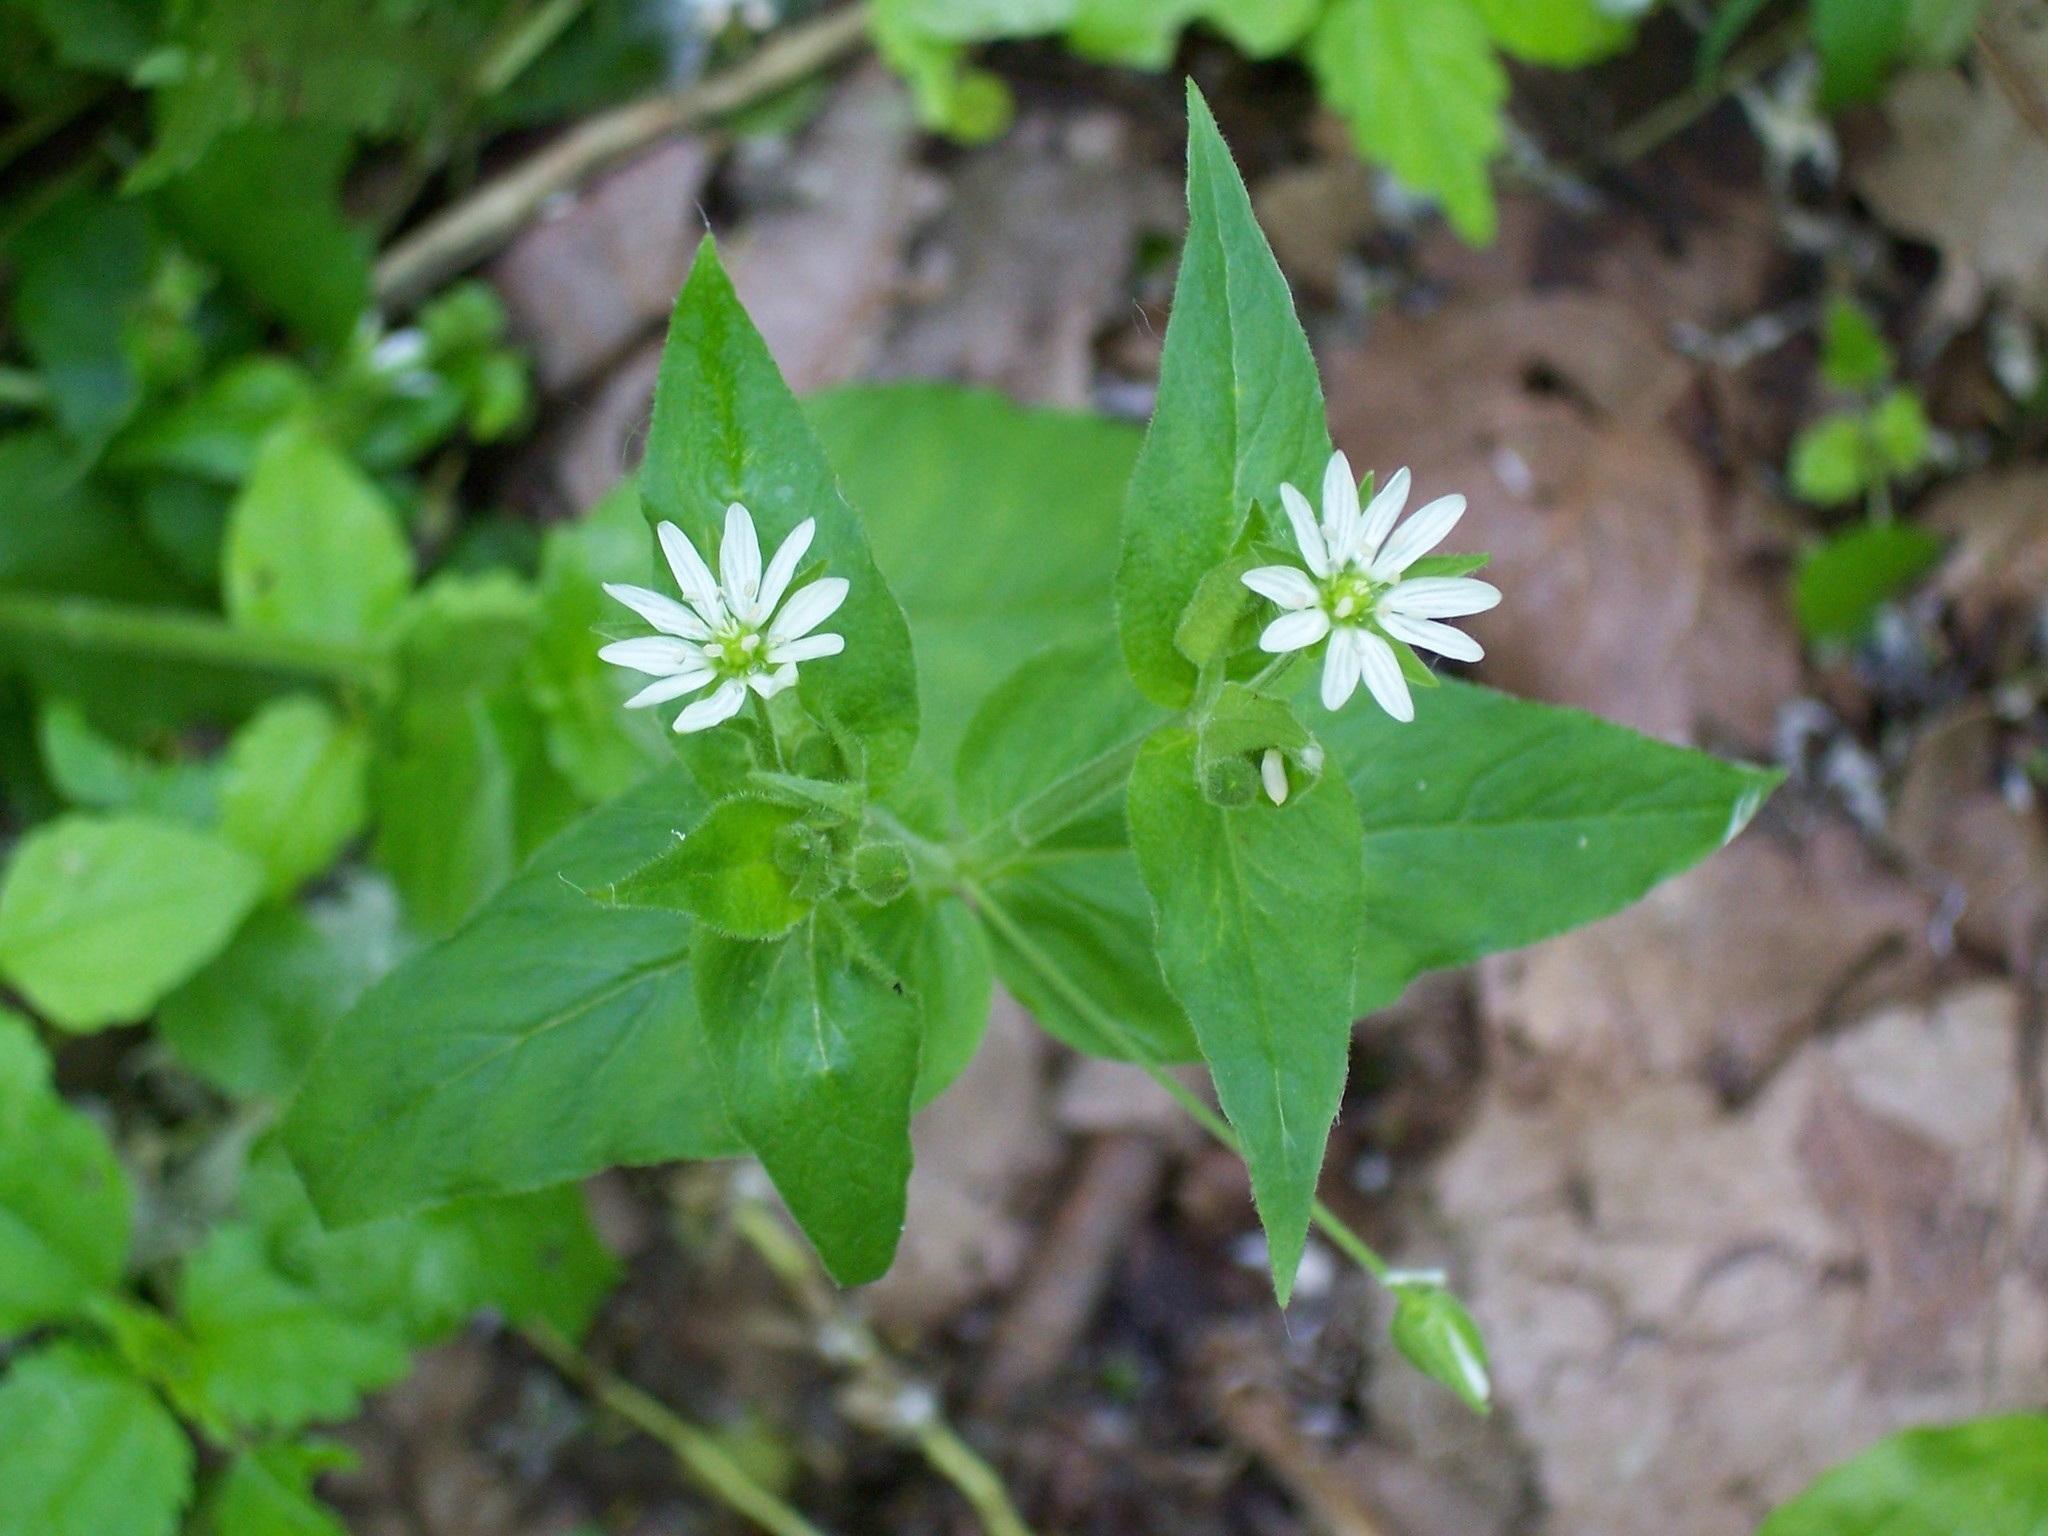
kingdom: Plantae
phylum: Tracheophyta
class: Magnoliopsida
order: Caryophyllales
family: Caryophyllaceae
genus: Stellaria
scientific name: Stellaria aquatica
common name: Water chickweed
